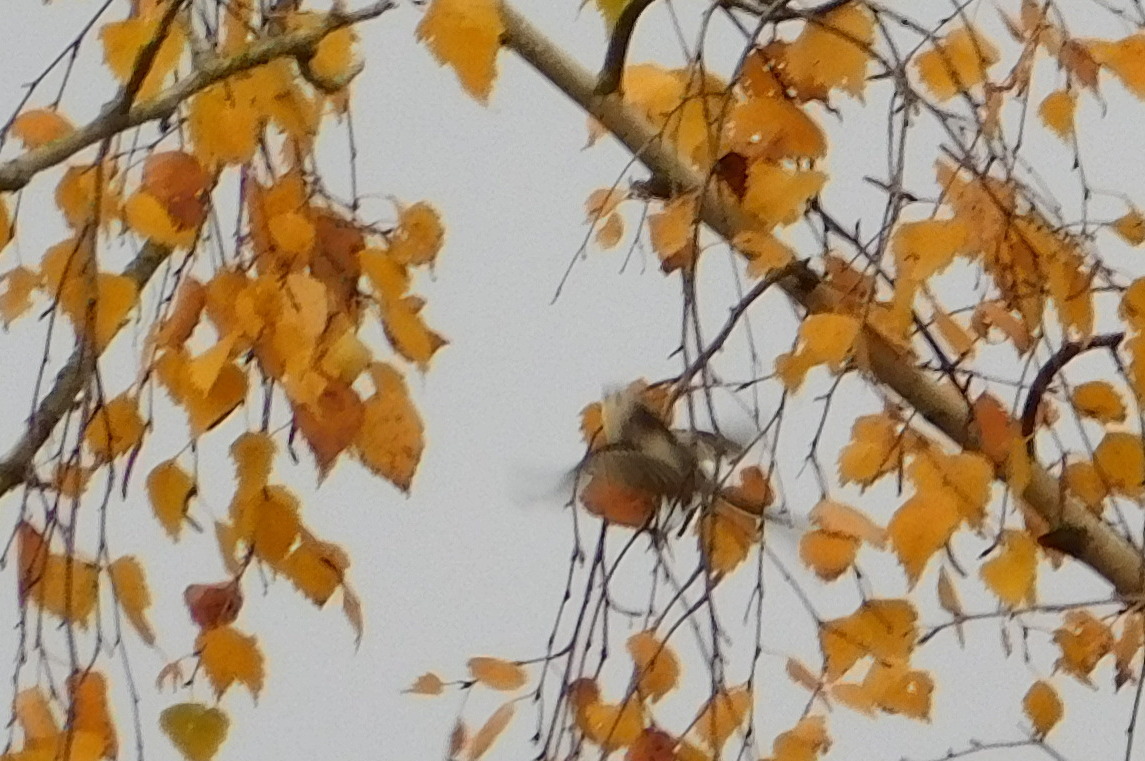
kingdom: Animalia
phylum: Chordata
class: Aves
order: Passeriformes
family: Aegithalidae
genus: Aegithalos
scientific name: Aegithalos caudatus
